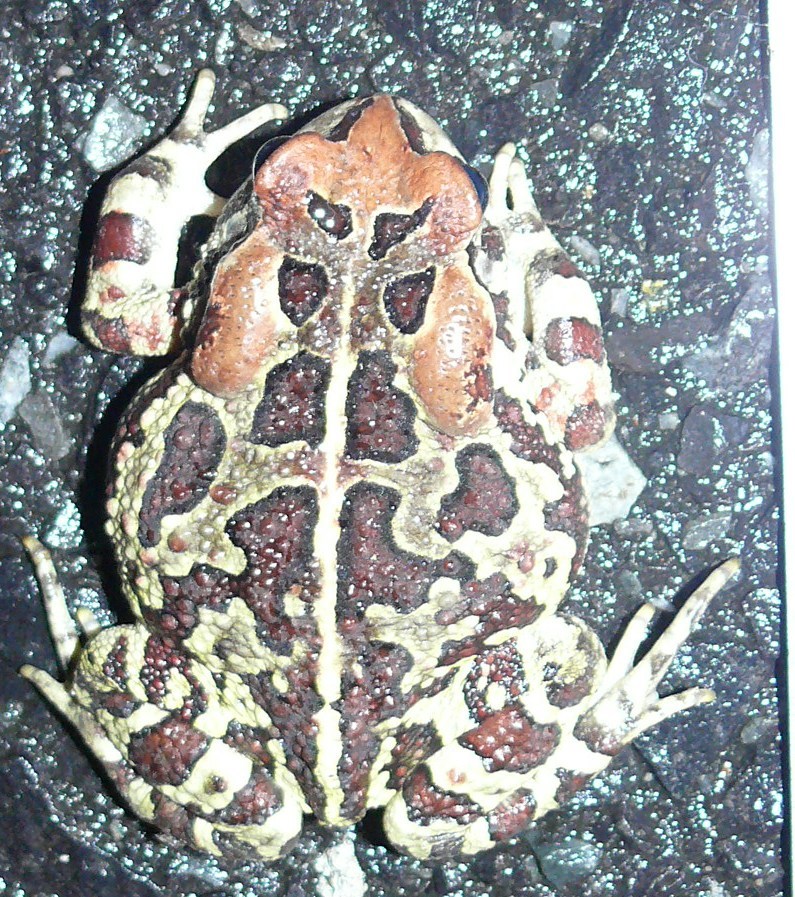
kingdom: Animalia
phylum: Chordata
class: Amphibia
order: Anura
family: Bufonidae
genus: Sclerophrys
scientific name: Sclerophrys pantherina
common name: Panther toad
